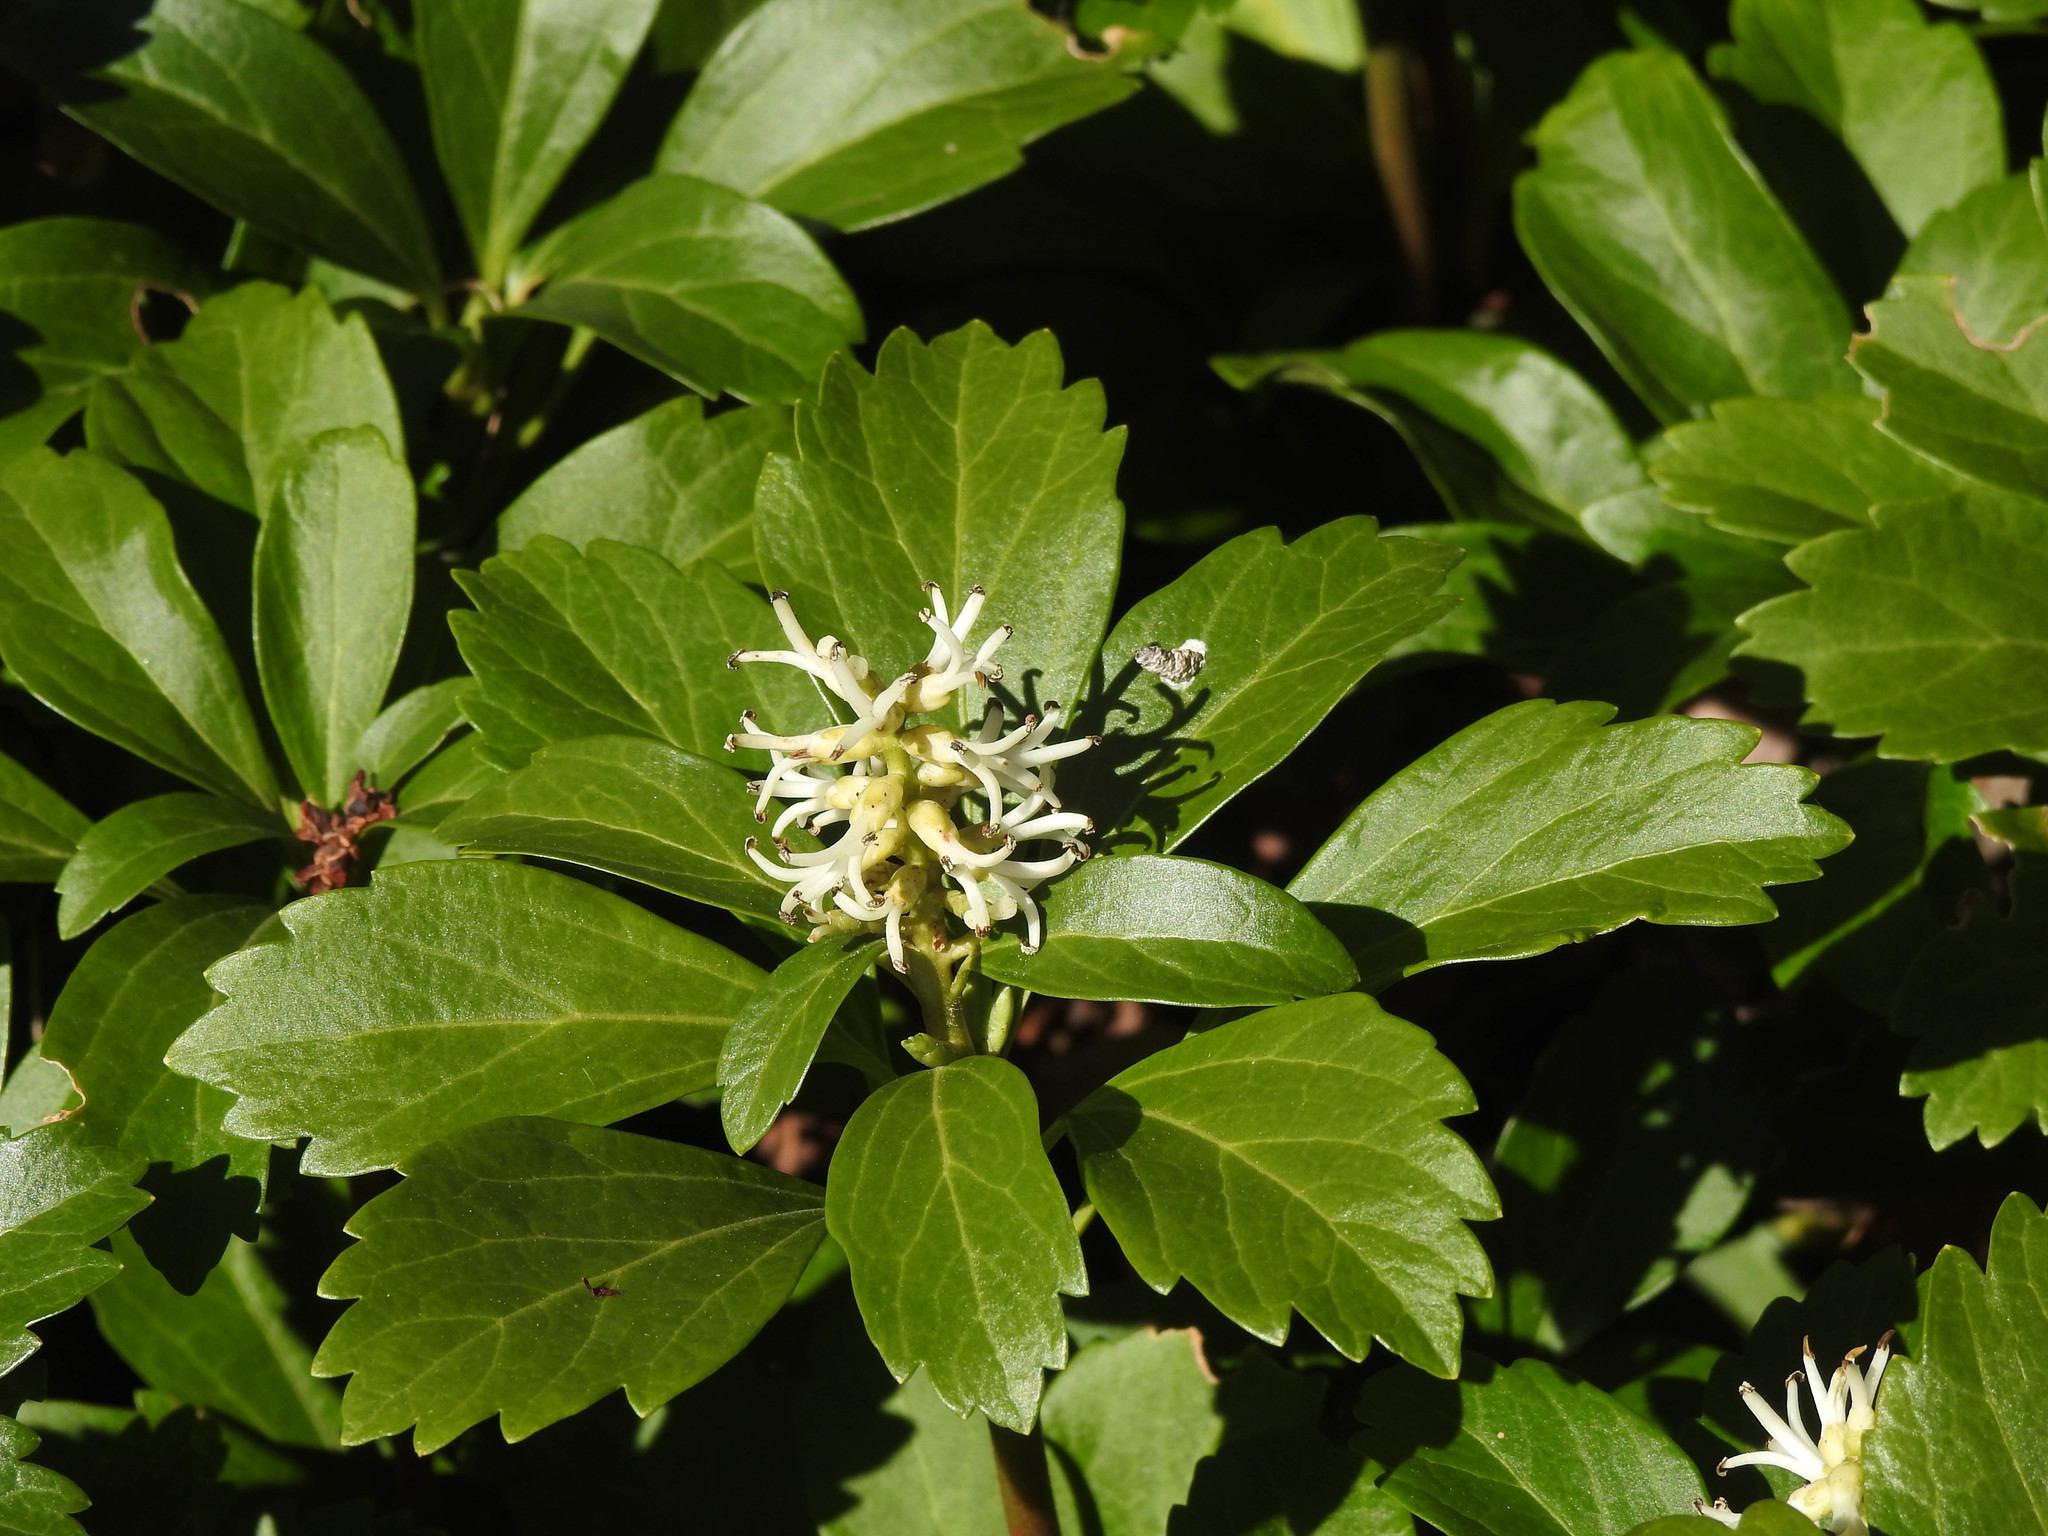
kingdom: Plantae
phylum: Tracheophyta
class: Magnoliopsida
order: Buxales
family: Buxaceae
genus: Pachysandra
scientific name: Pachysandra terminalis
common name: Japanese pachysandra
